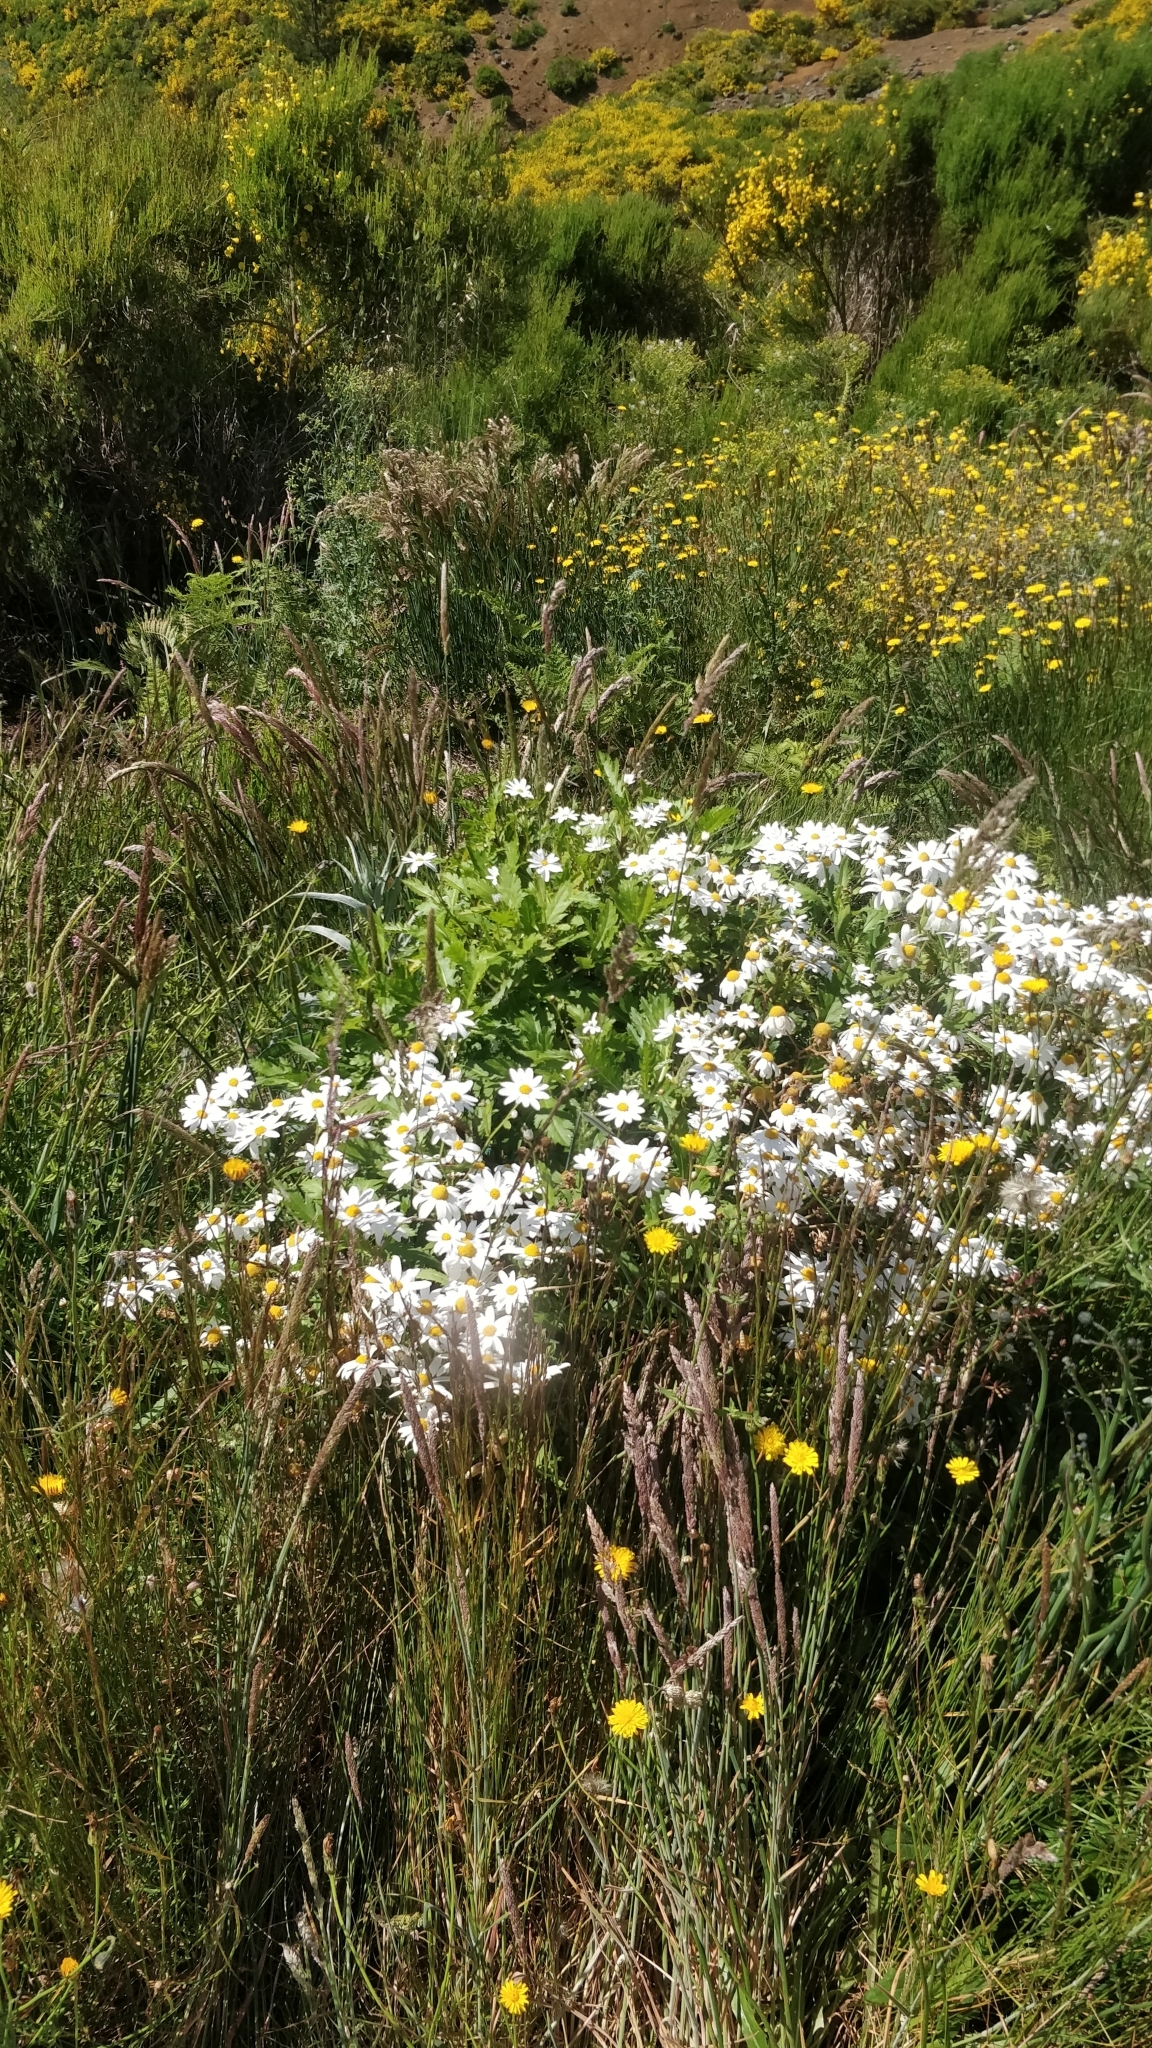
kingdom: Plantae
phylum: Tracheophyta
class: Magnoliopsida
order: Asterales
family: Asteraceae
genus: Argyranthemum
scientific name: Argyranthemum pinnatifidum
